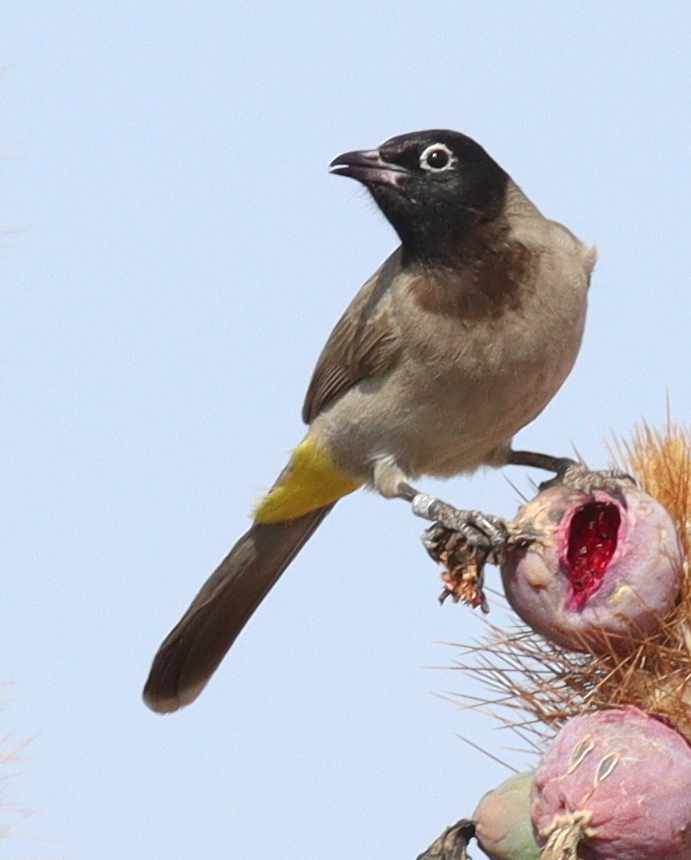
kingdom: Animalia
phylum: Chordata
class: Aves
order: Passeriformes
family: Pycnonotidae
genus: Pycnonotus
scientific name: Pycnonotus xanthopygos
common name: White-spectacled bulbul
